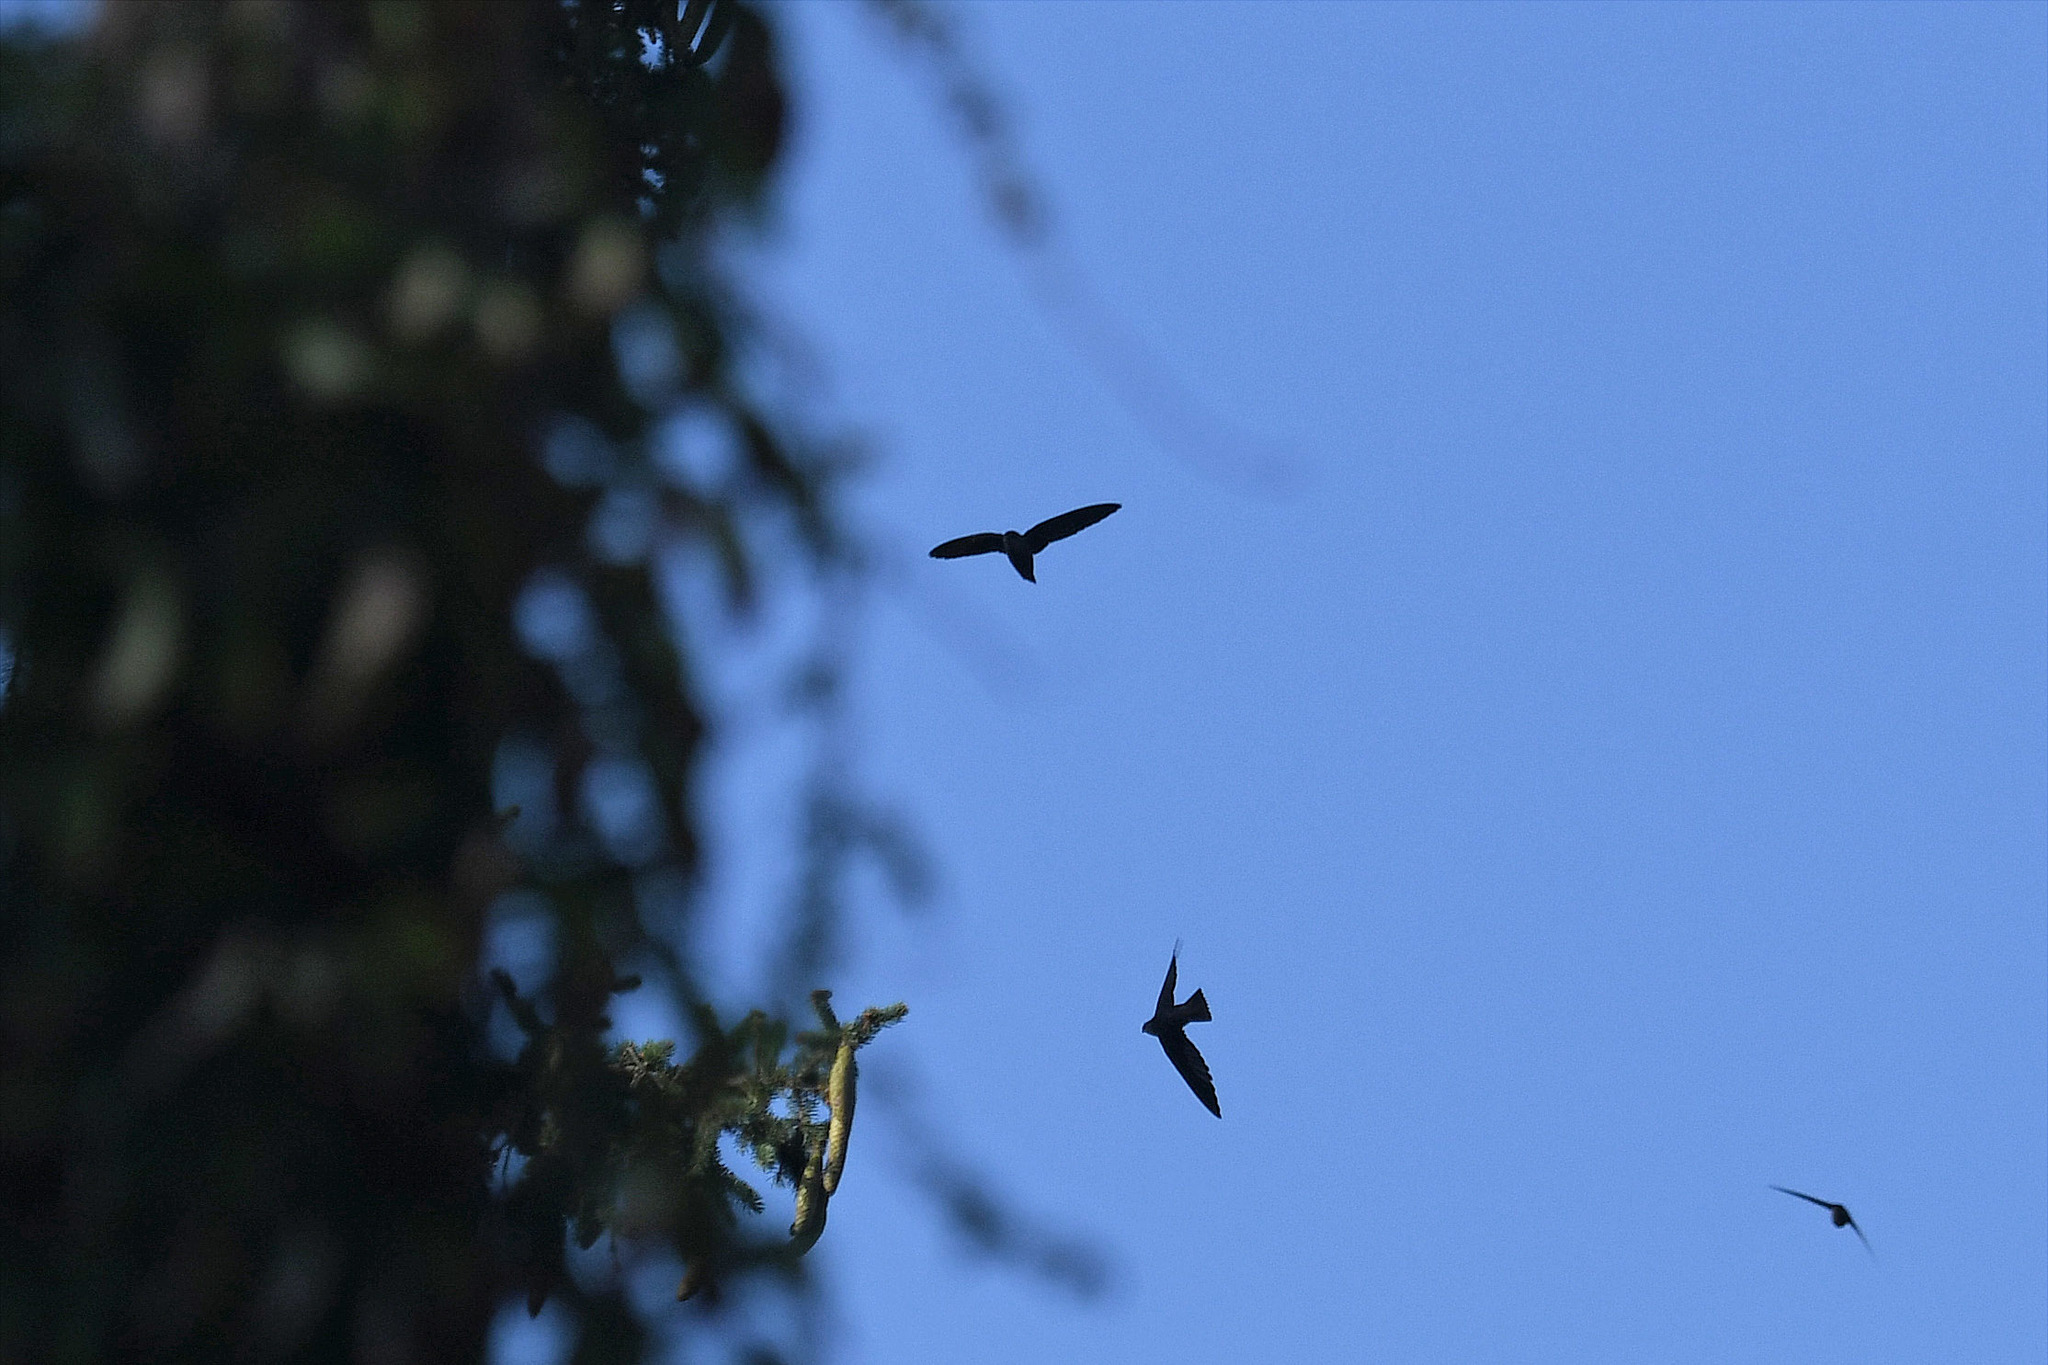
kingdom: Animalia
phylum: Chordata
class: Aves
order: Apodiformes
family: Apodidae
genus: Chaetura
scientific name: Chaetura pelagica
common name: Chimney swift
